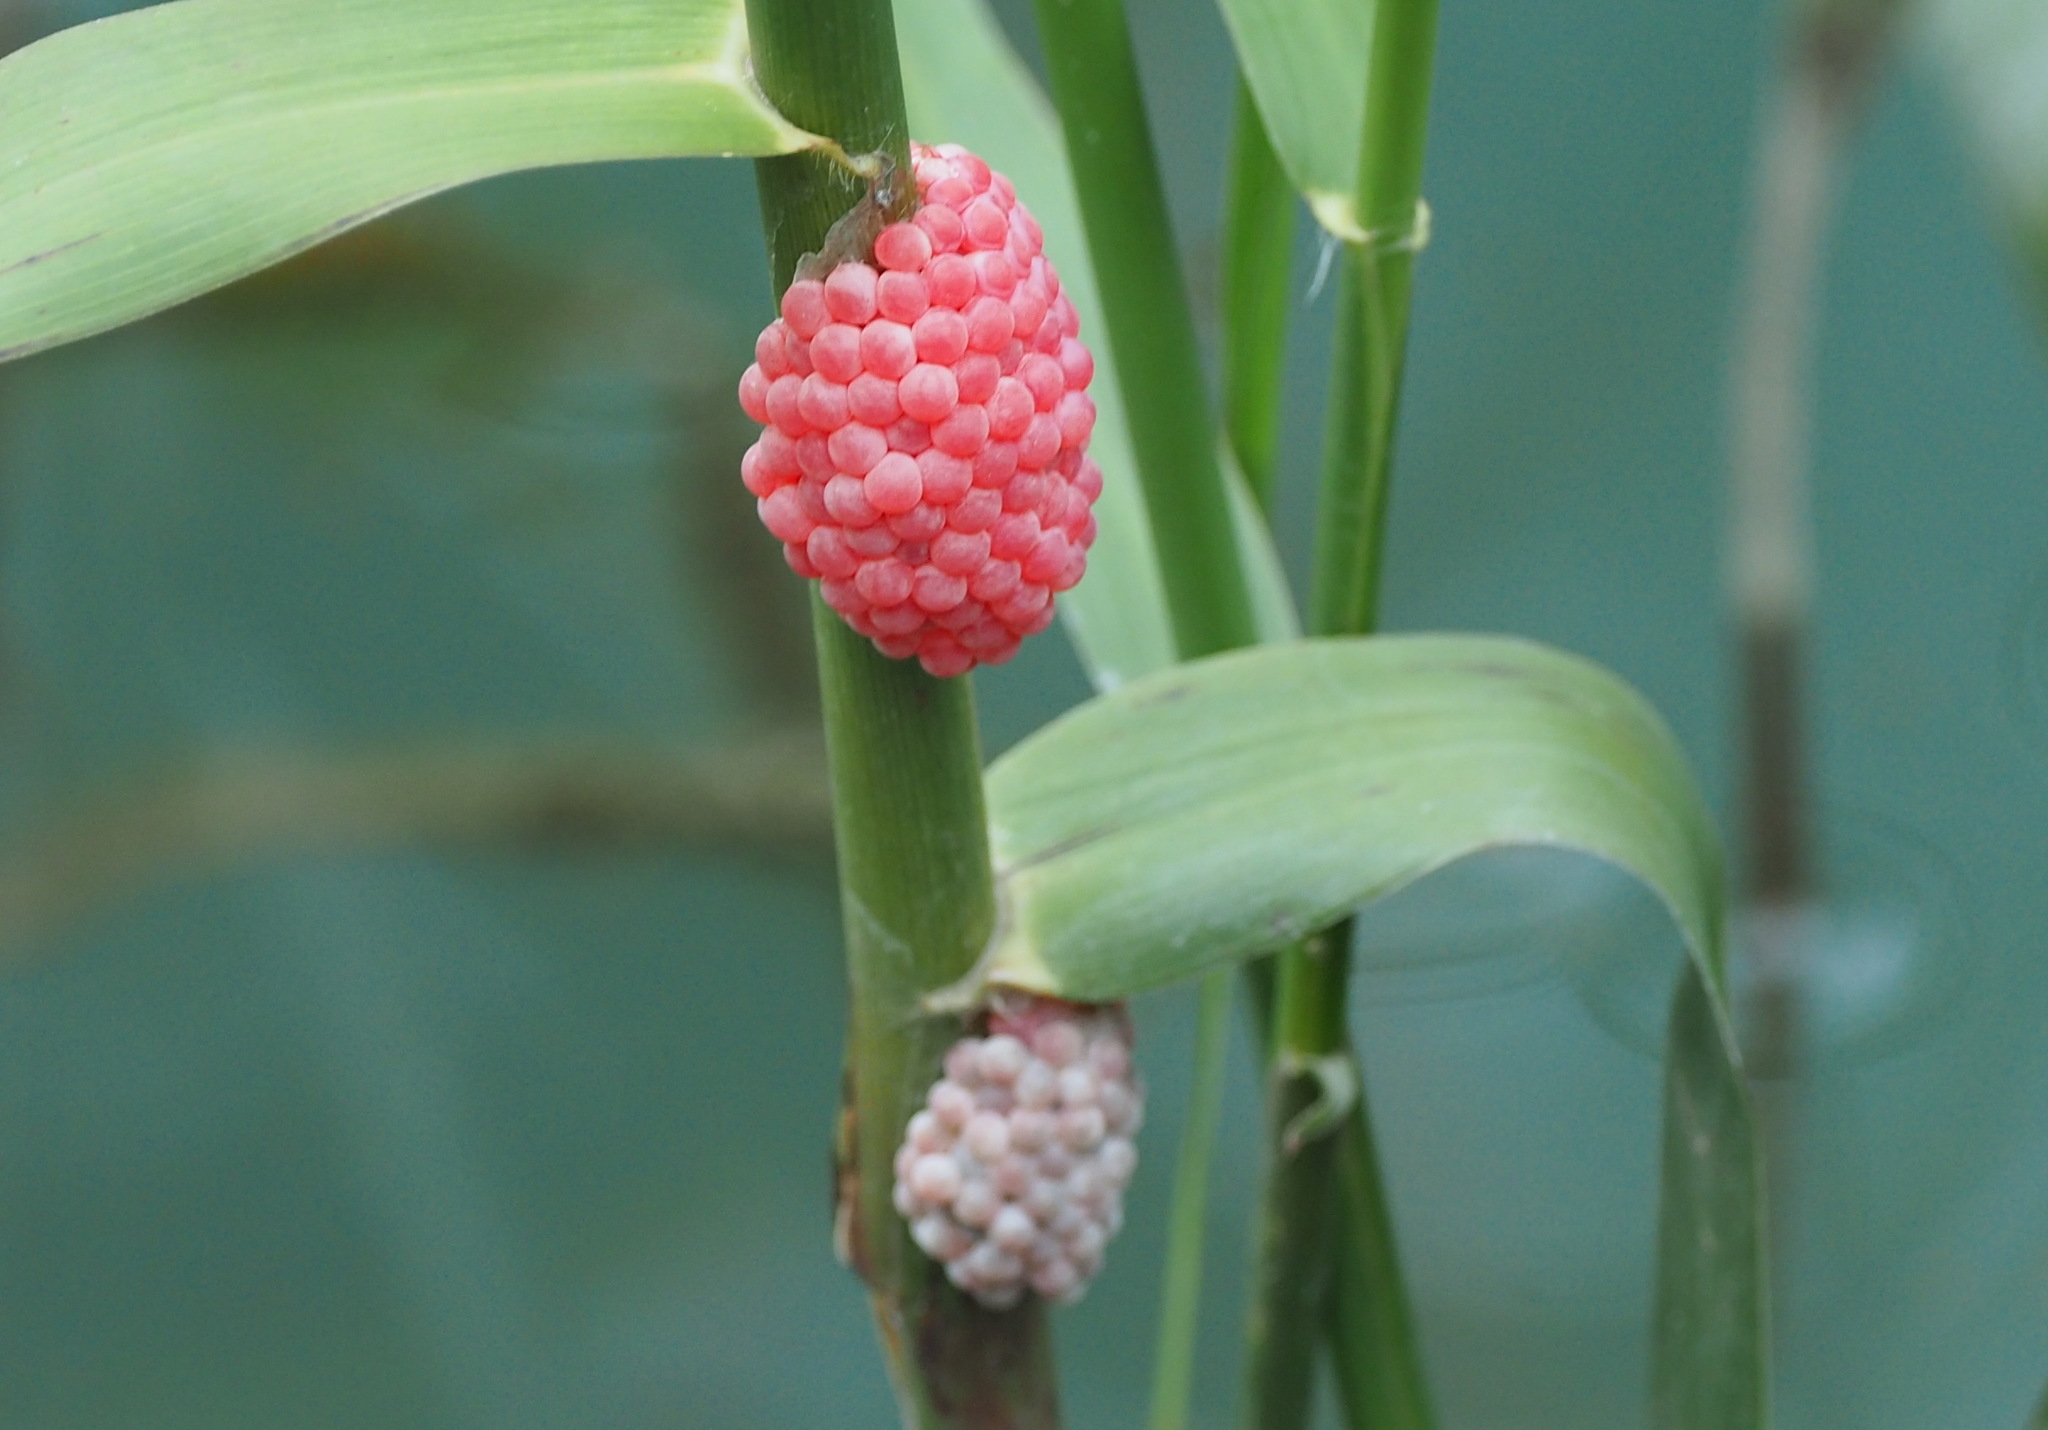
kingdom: Animalia
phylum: Mollusca
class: Gastropoda
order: Architaenioglossa
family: Ampullariidae
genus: Pomacea
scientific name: Pomacea canaliculata
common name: Channeled applesnail
